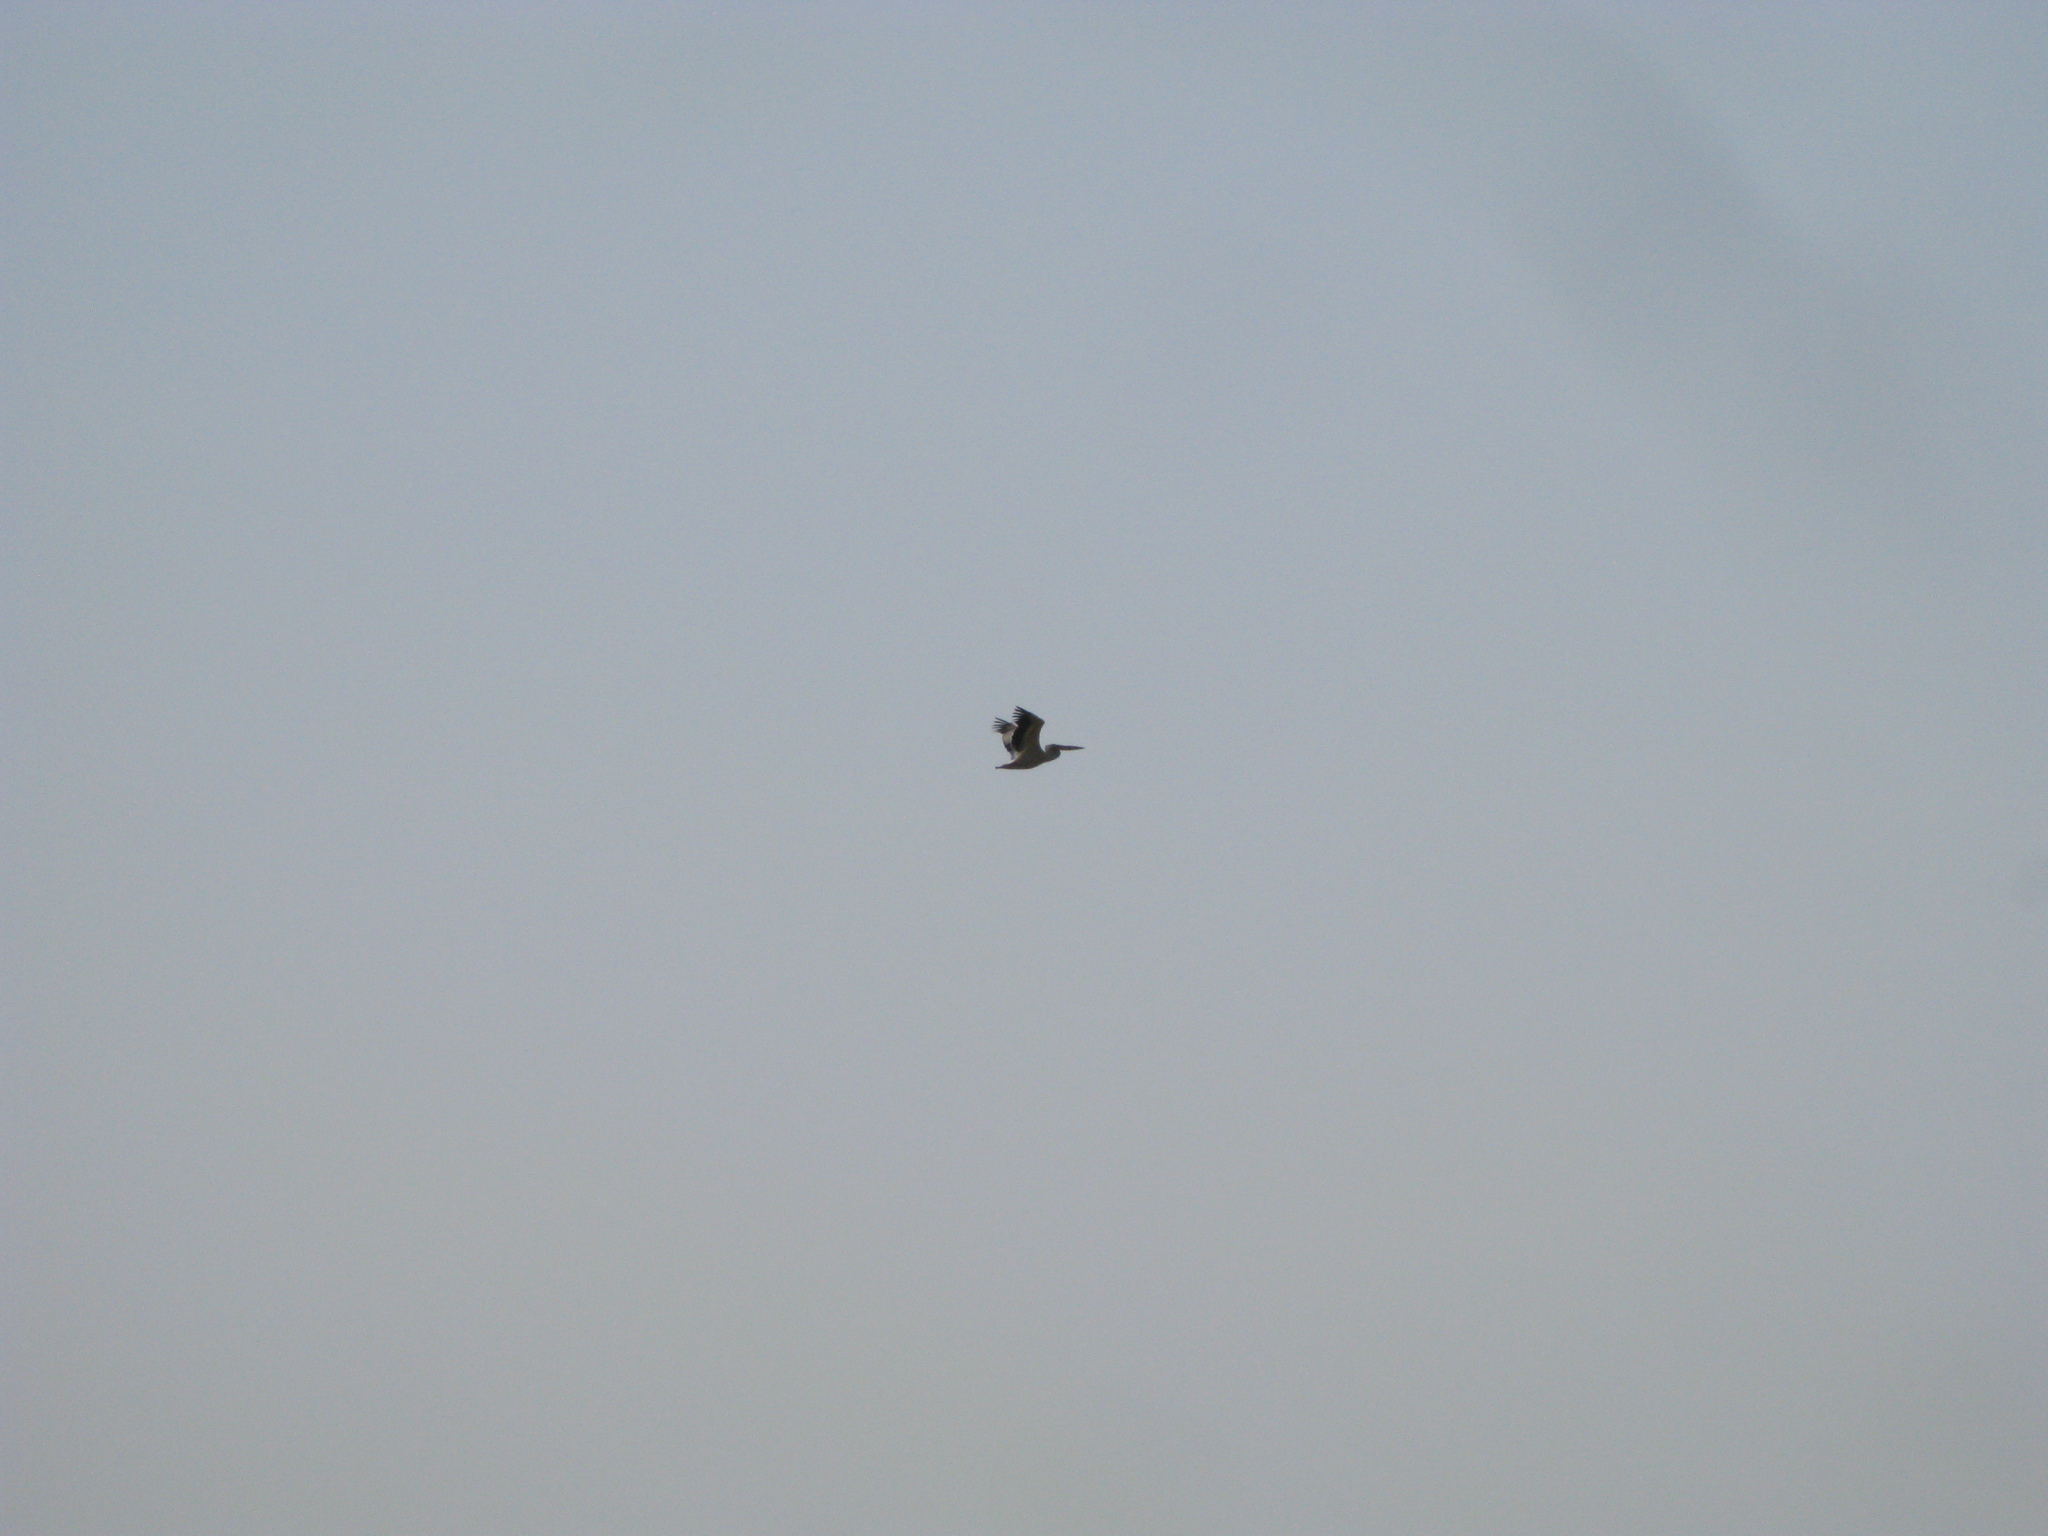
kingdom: Animalia
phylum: Chordata
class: Aves
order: Pelecaniformes
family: Pelecanidae
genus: Pelecanus
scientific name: Pelecanus onocrotalus
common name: Great white pelican
